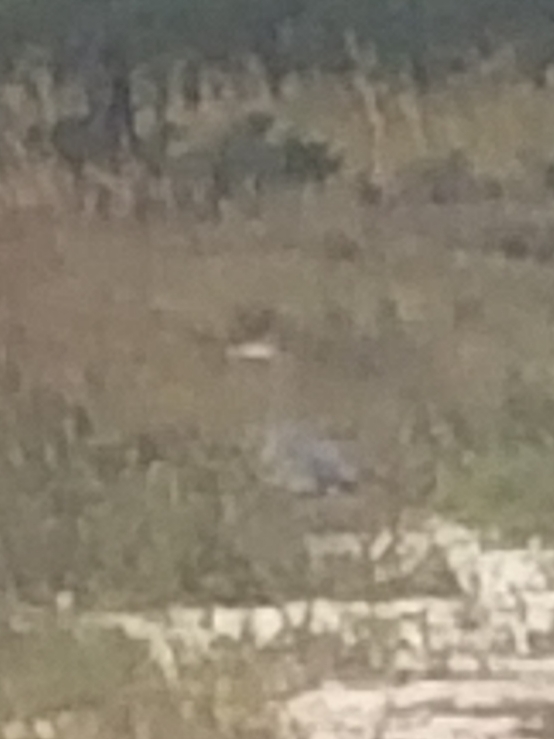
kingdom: Animalia
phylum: Chordata
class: Aves
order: Pelecaniformes
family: Ardeidae
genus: Ardea
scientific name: Ardea herodias
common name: Great blue heron
